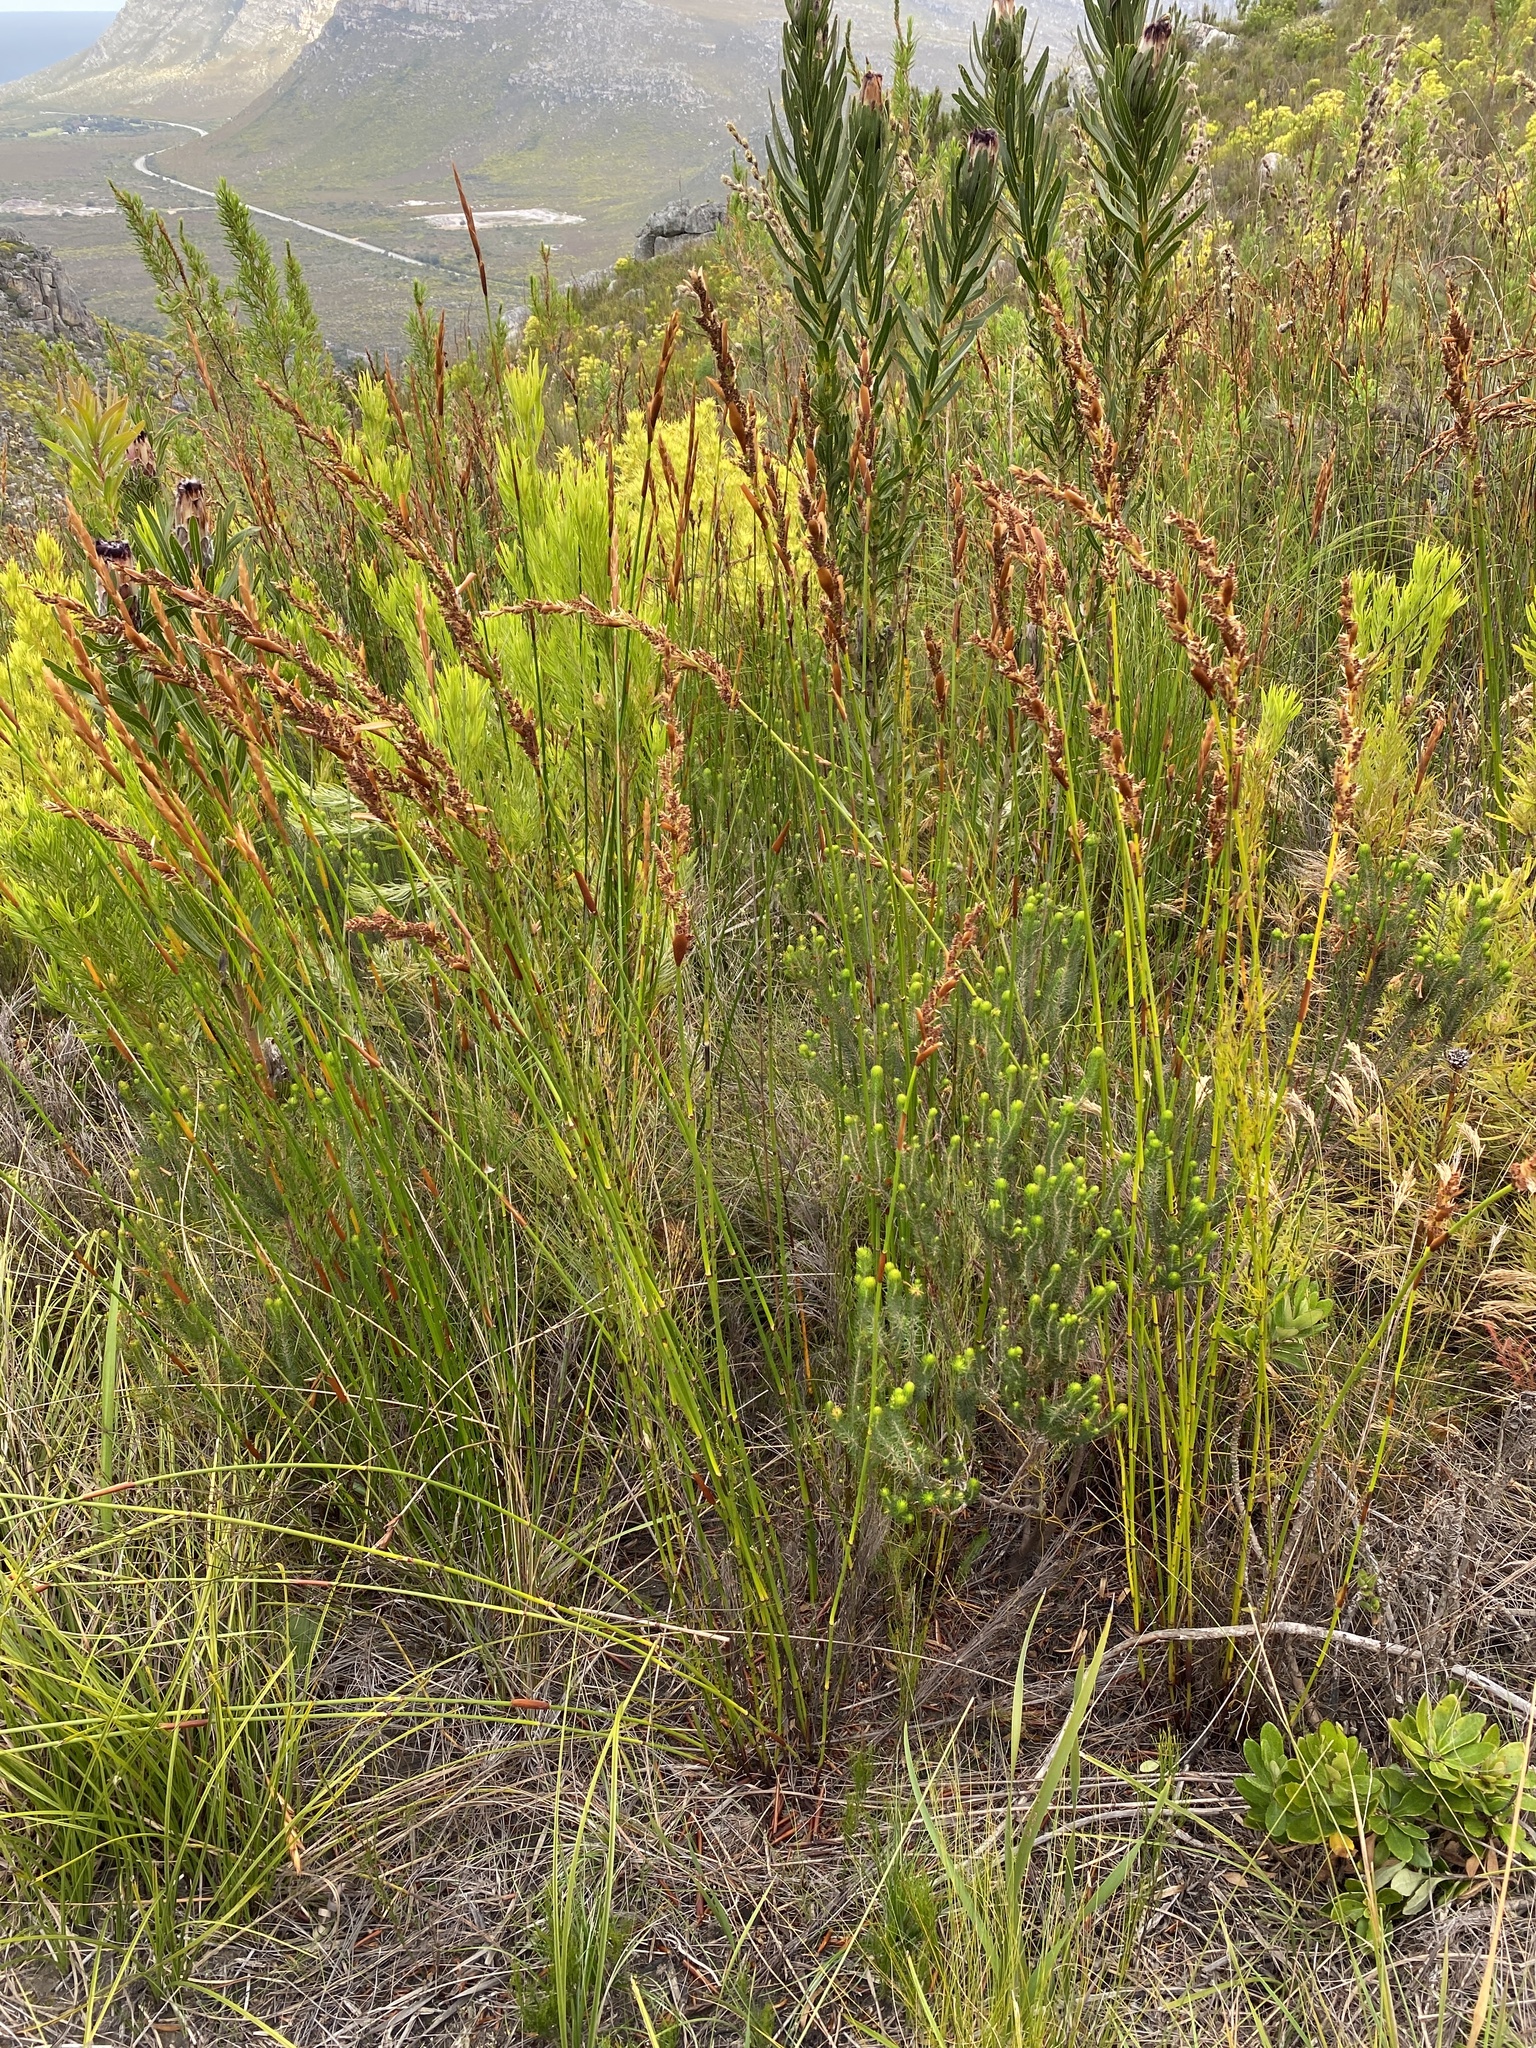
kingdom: Plantae
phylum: Tracheophyta
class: Liliopsida
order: Poales
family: Restionaceae
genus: Elegia
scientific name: Elegia equisetacea
